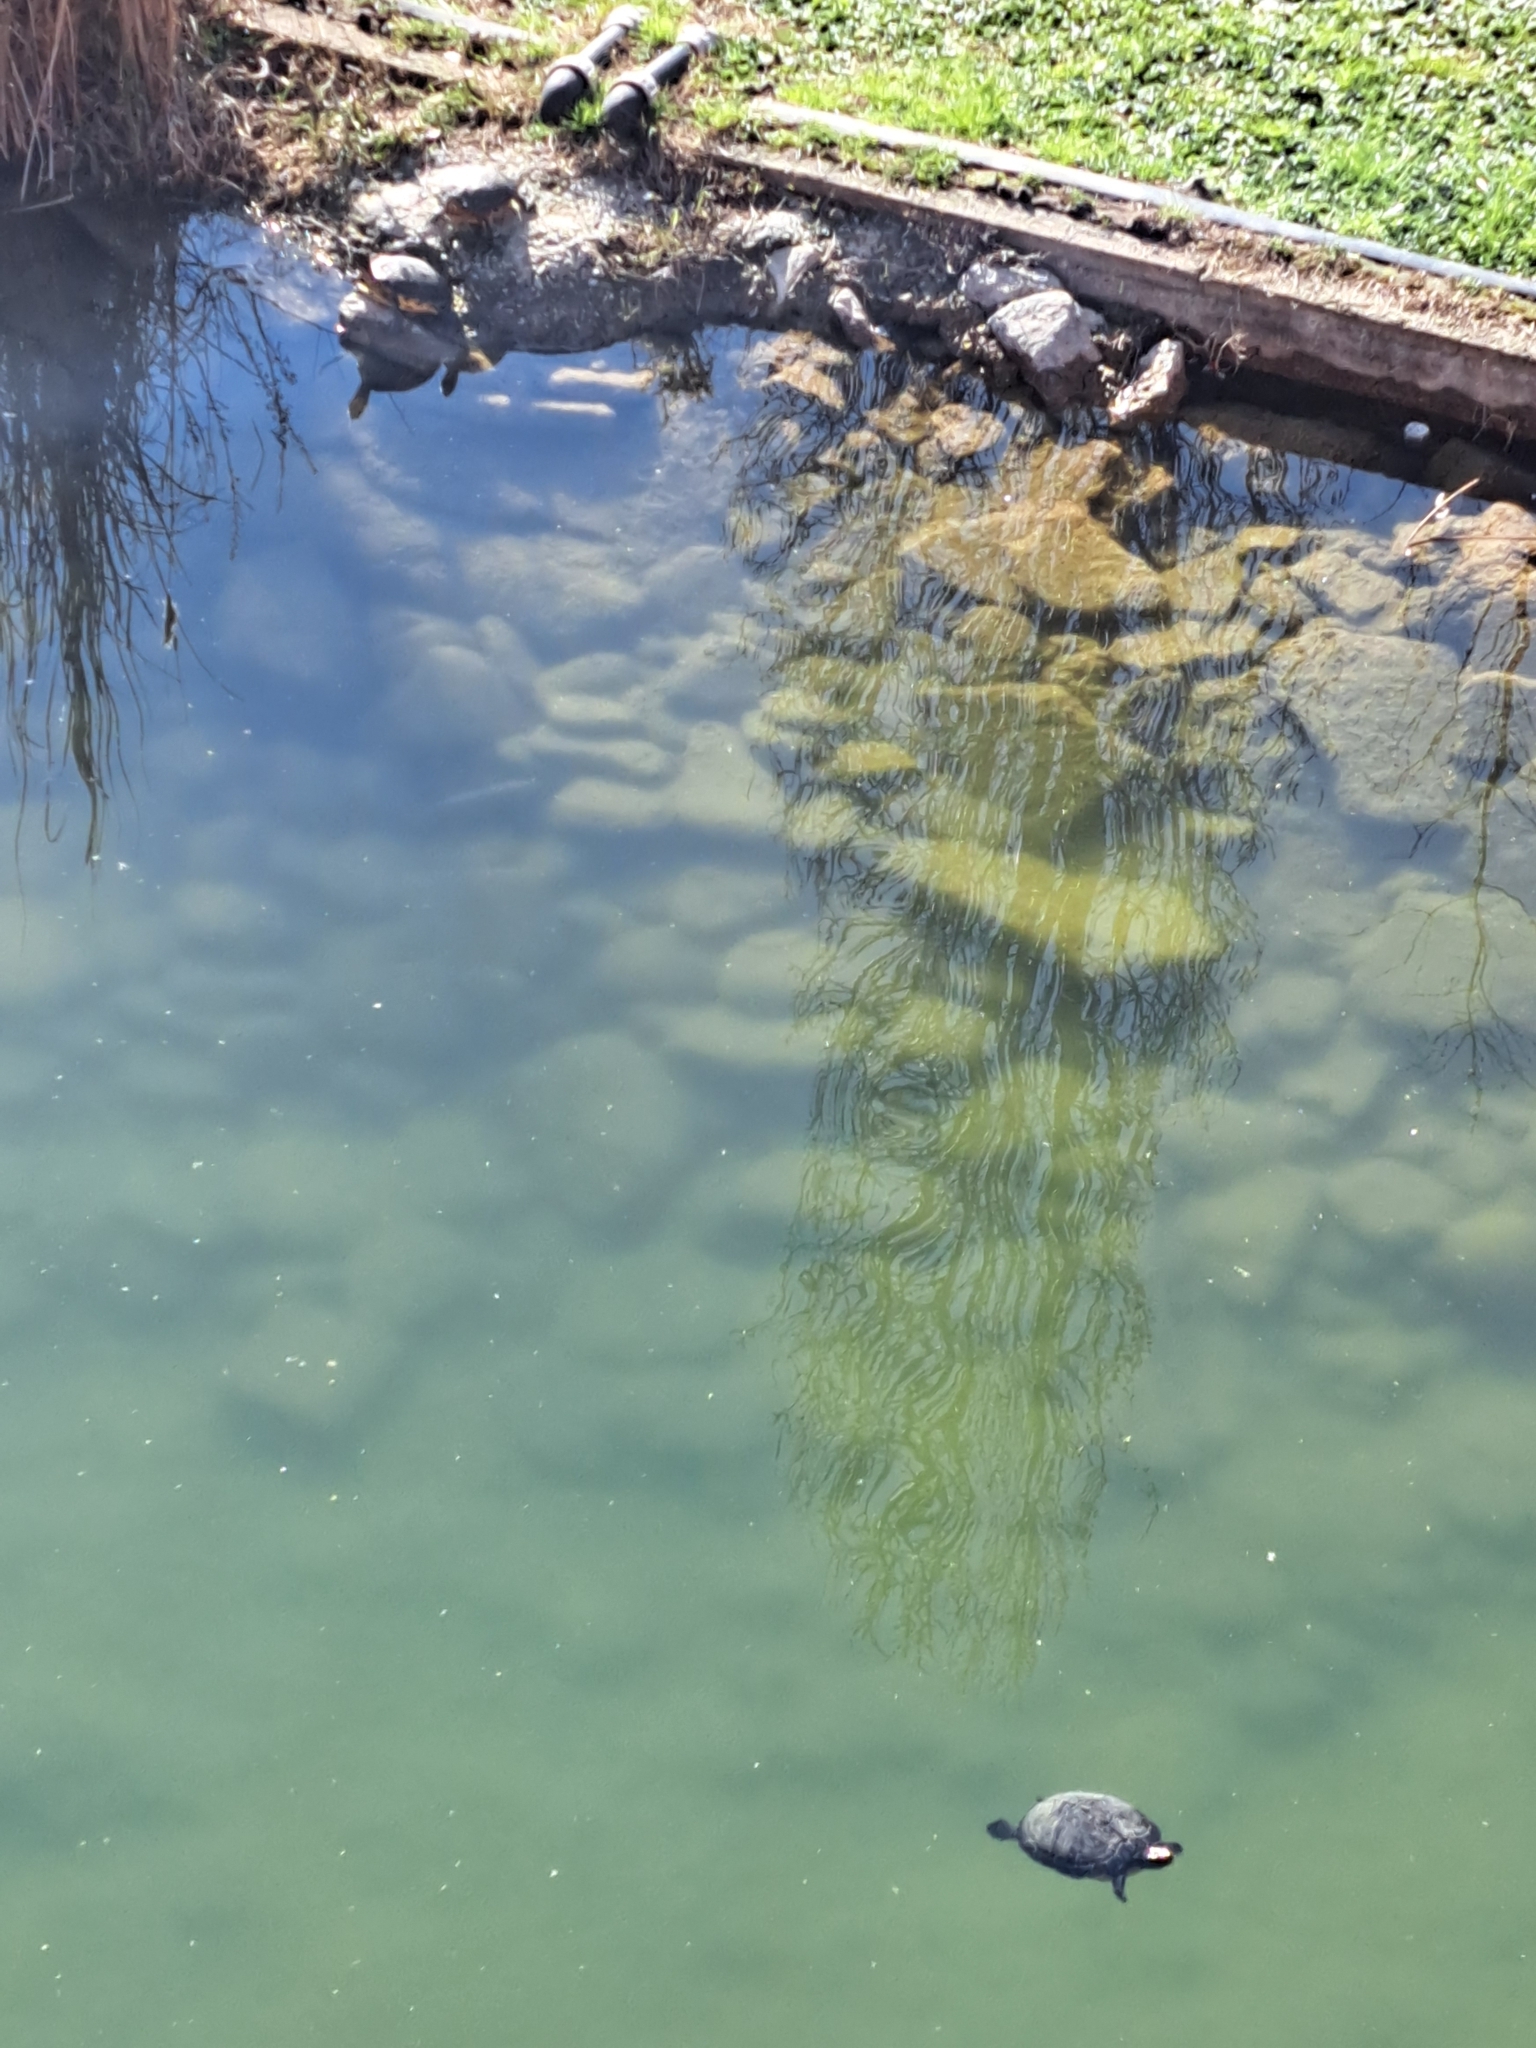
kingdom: Animalia
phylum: Chordata
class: Testudines
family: Emydidae
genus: Trachemys
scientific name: Trachemys scripta
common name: Slider
